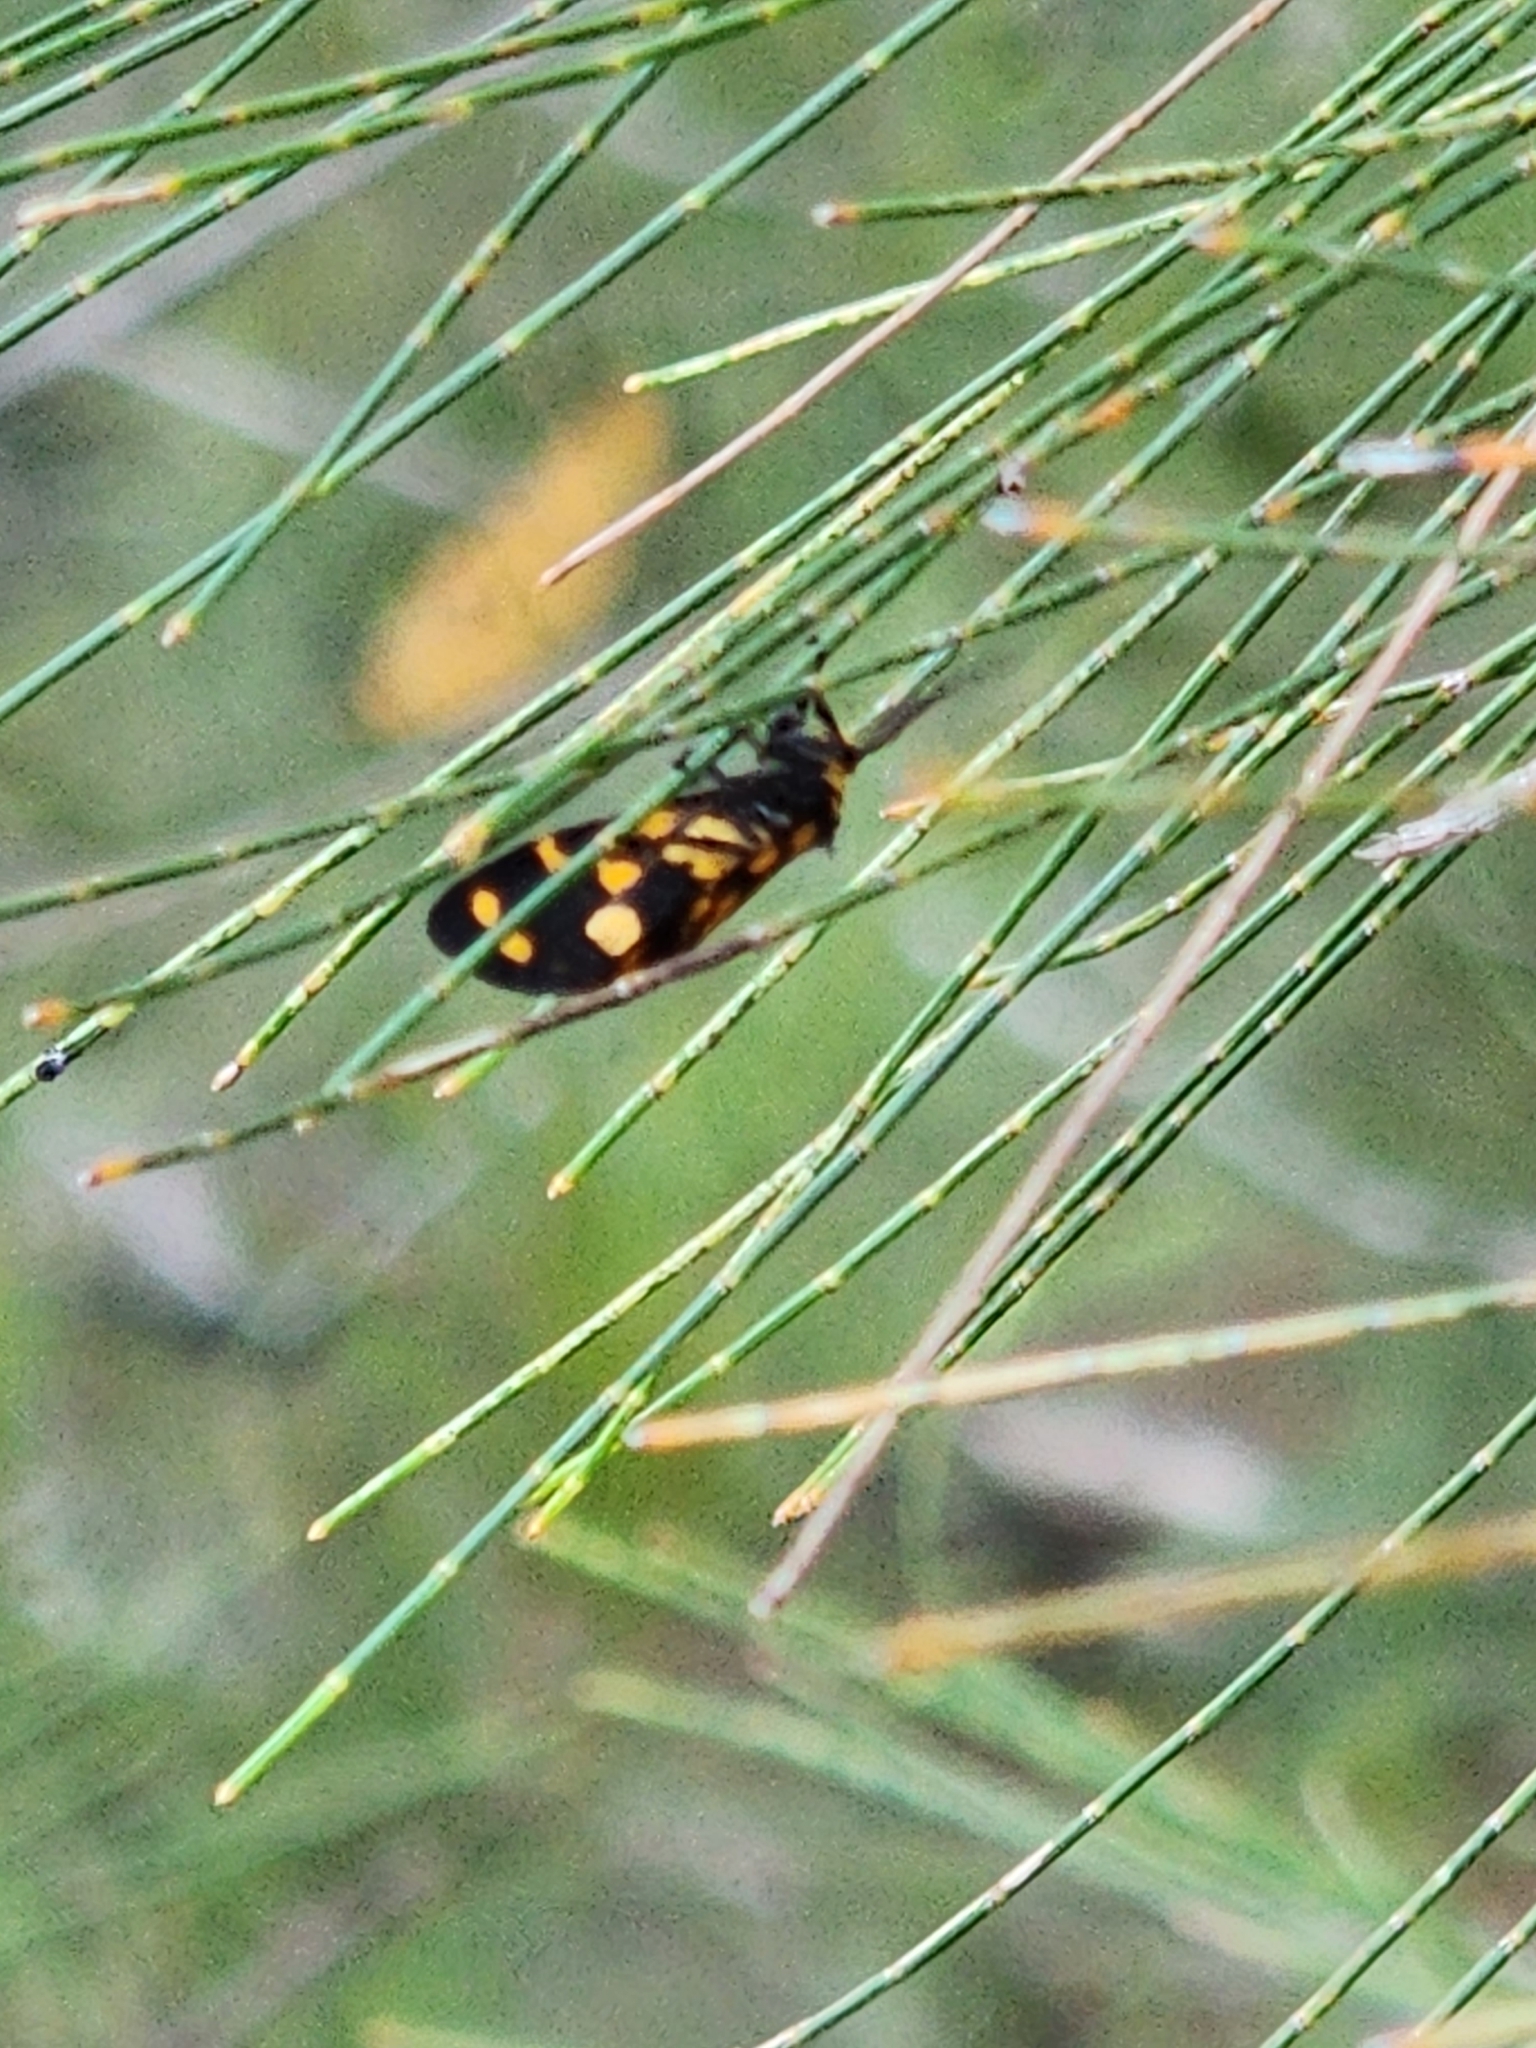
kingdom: Animalia
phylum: Arthropoda
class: Insecta
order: Lepidoptera
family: Erebidae
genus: Asura
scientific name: Asura lydia
